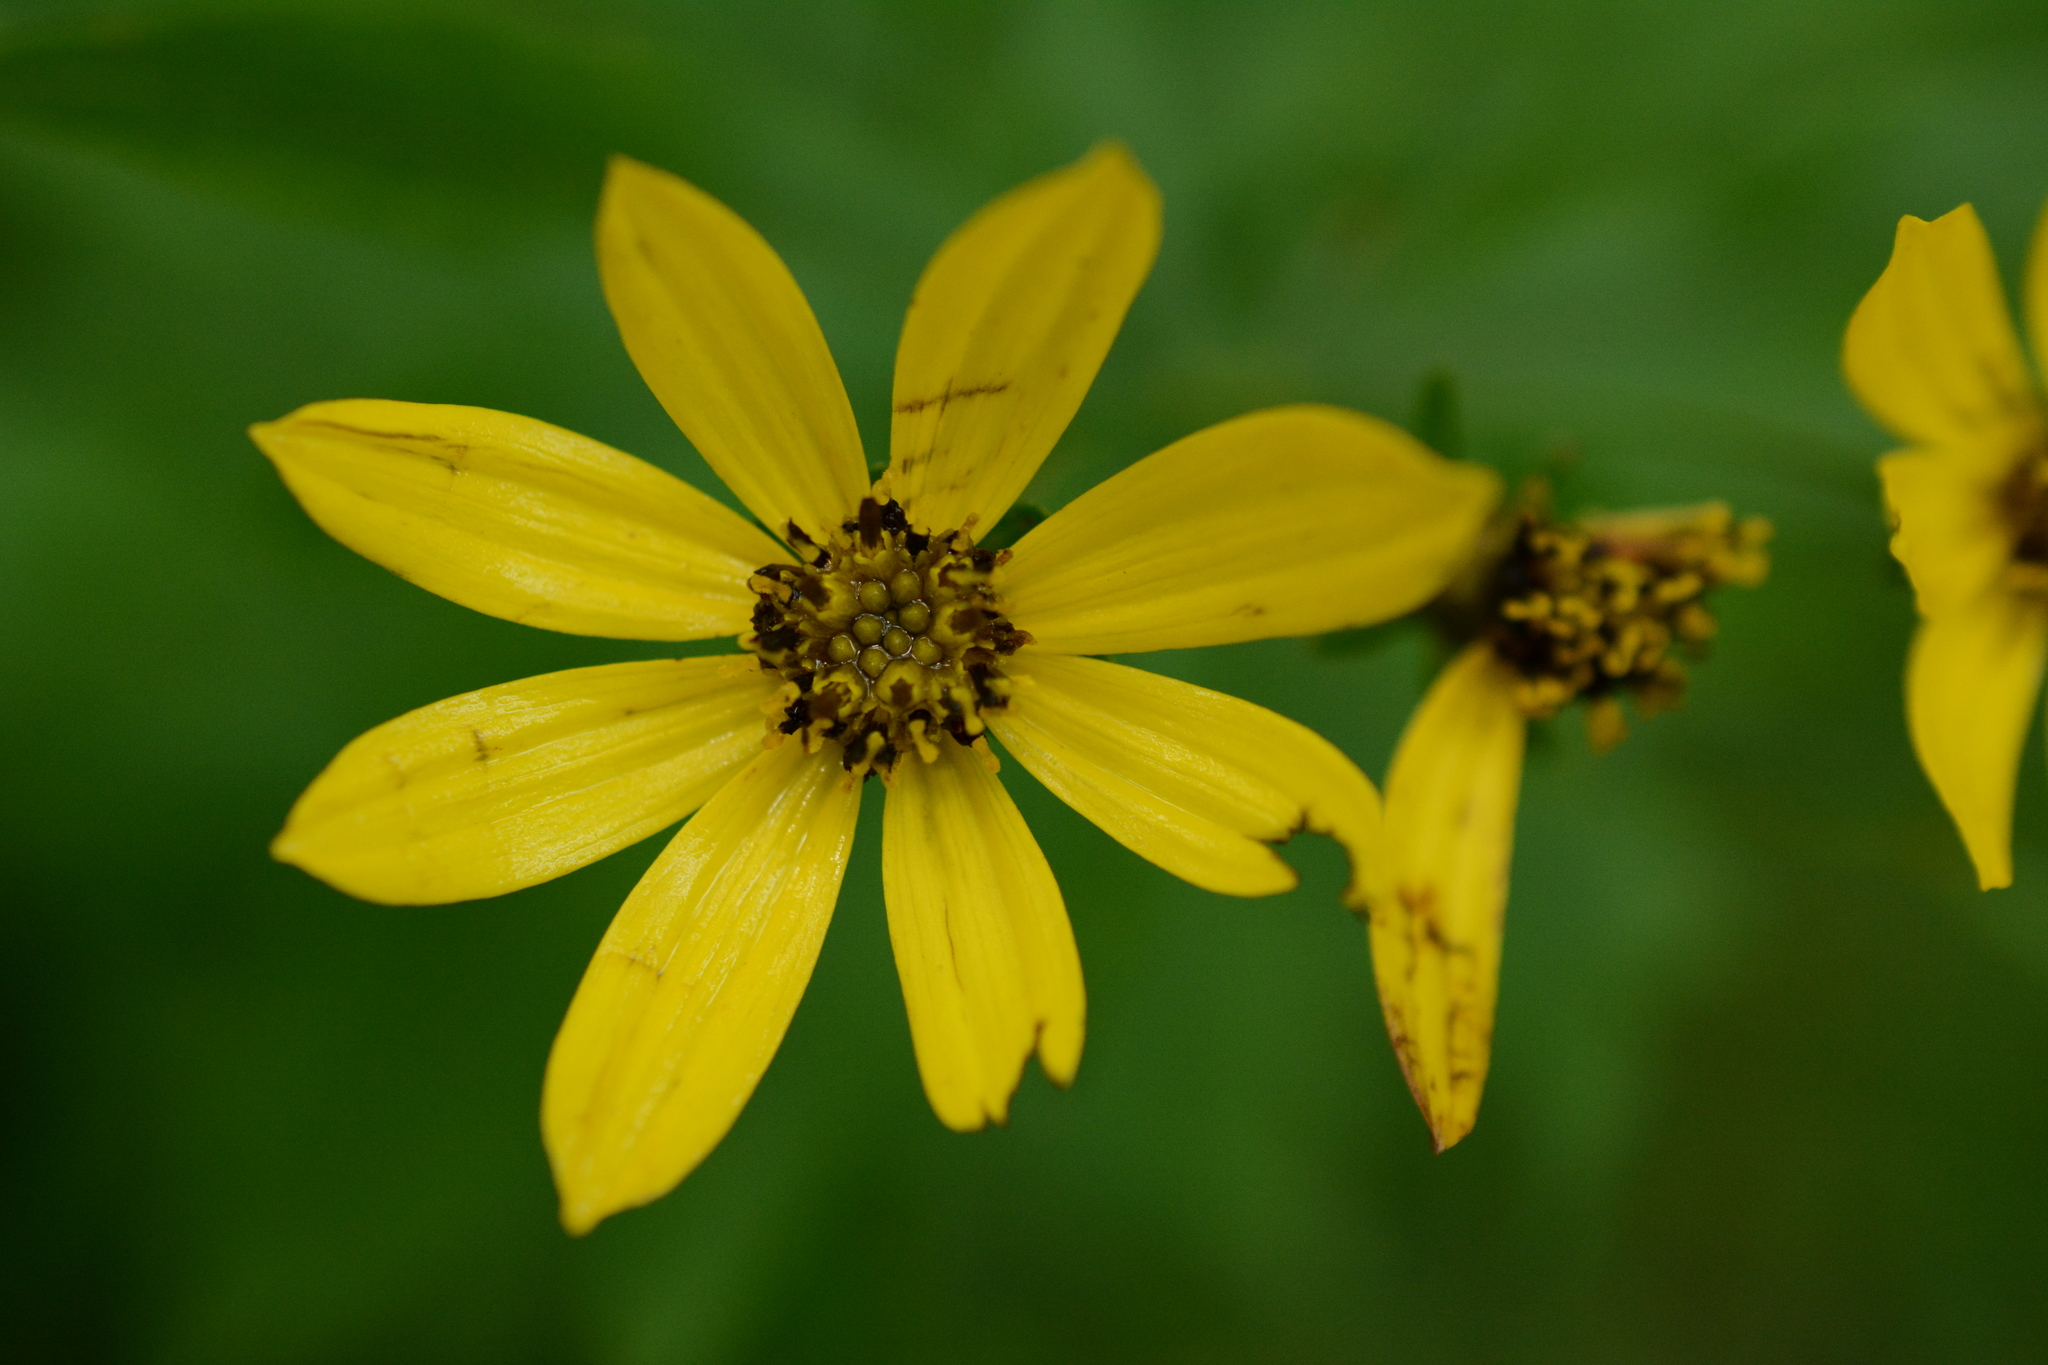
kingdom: Plantae
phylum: Tracheophyta
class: Magnoliopsida
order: Asterales
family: Asteraceae
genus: Coreopsis
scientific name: Coreopsis major
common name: Forest tickseed
